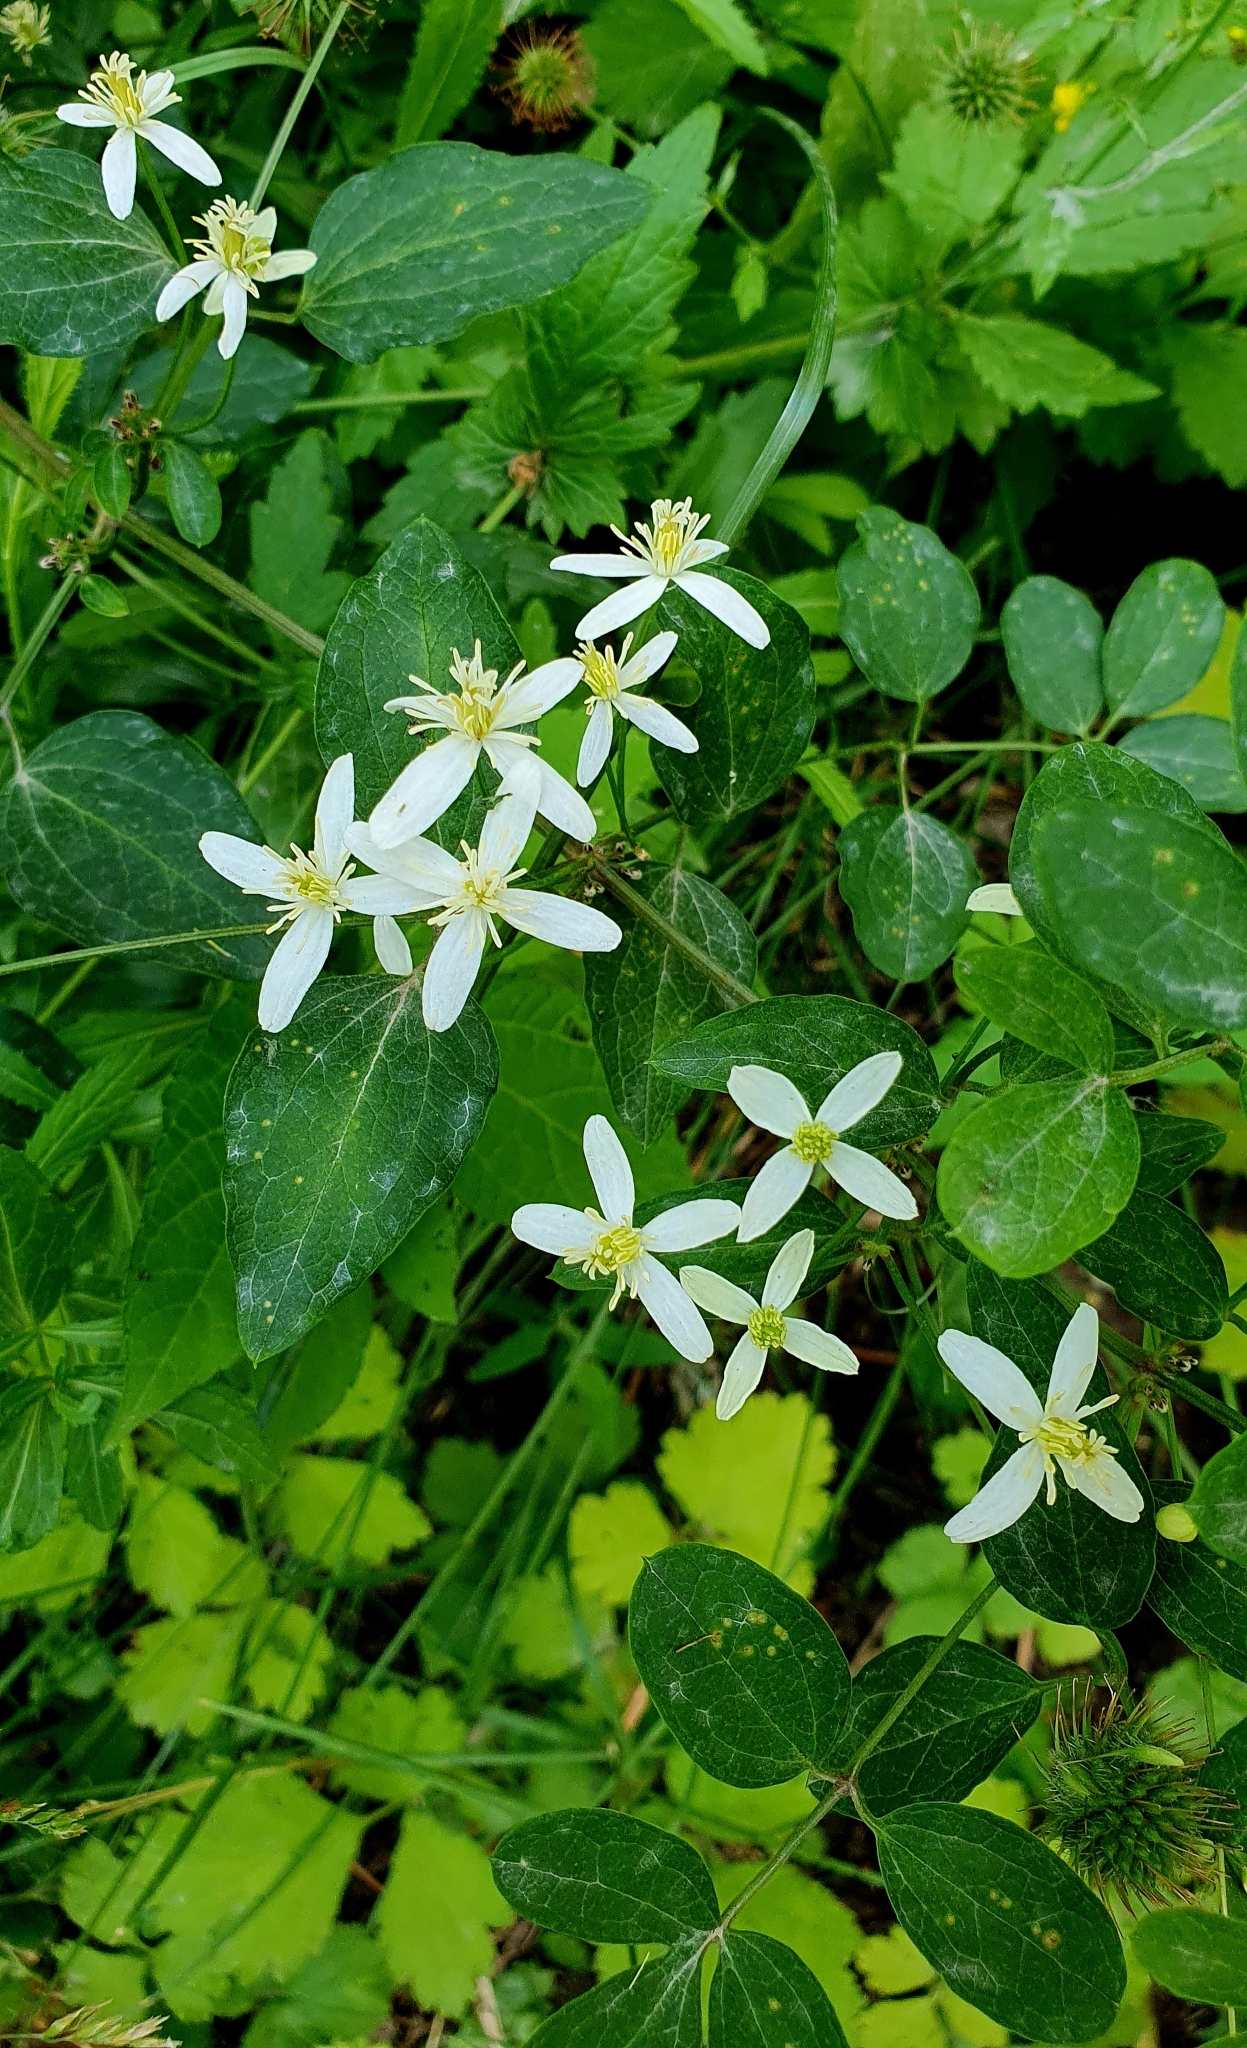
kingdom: Plantae
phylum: Tracheophyta
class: Magnoliopsida
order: Ranunculales
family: Ranunculaceae
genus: Clematis
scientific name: Clematis recta
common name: Ground clematis
